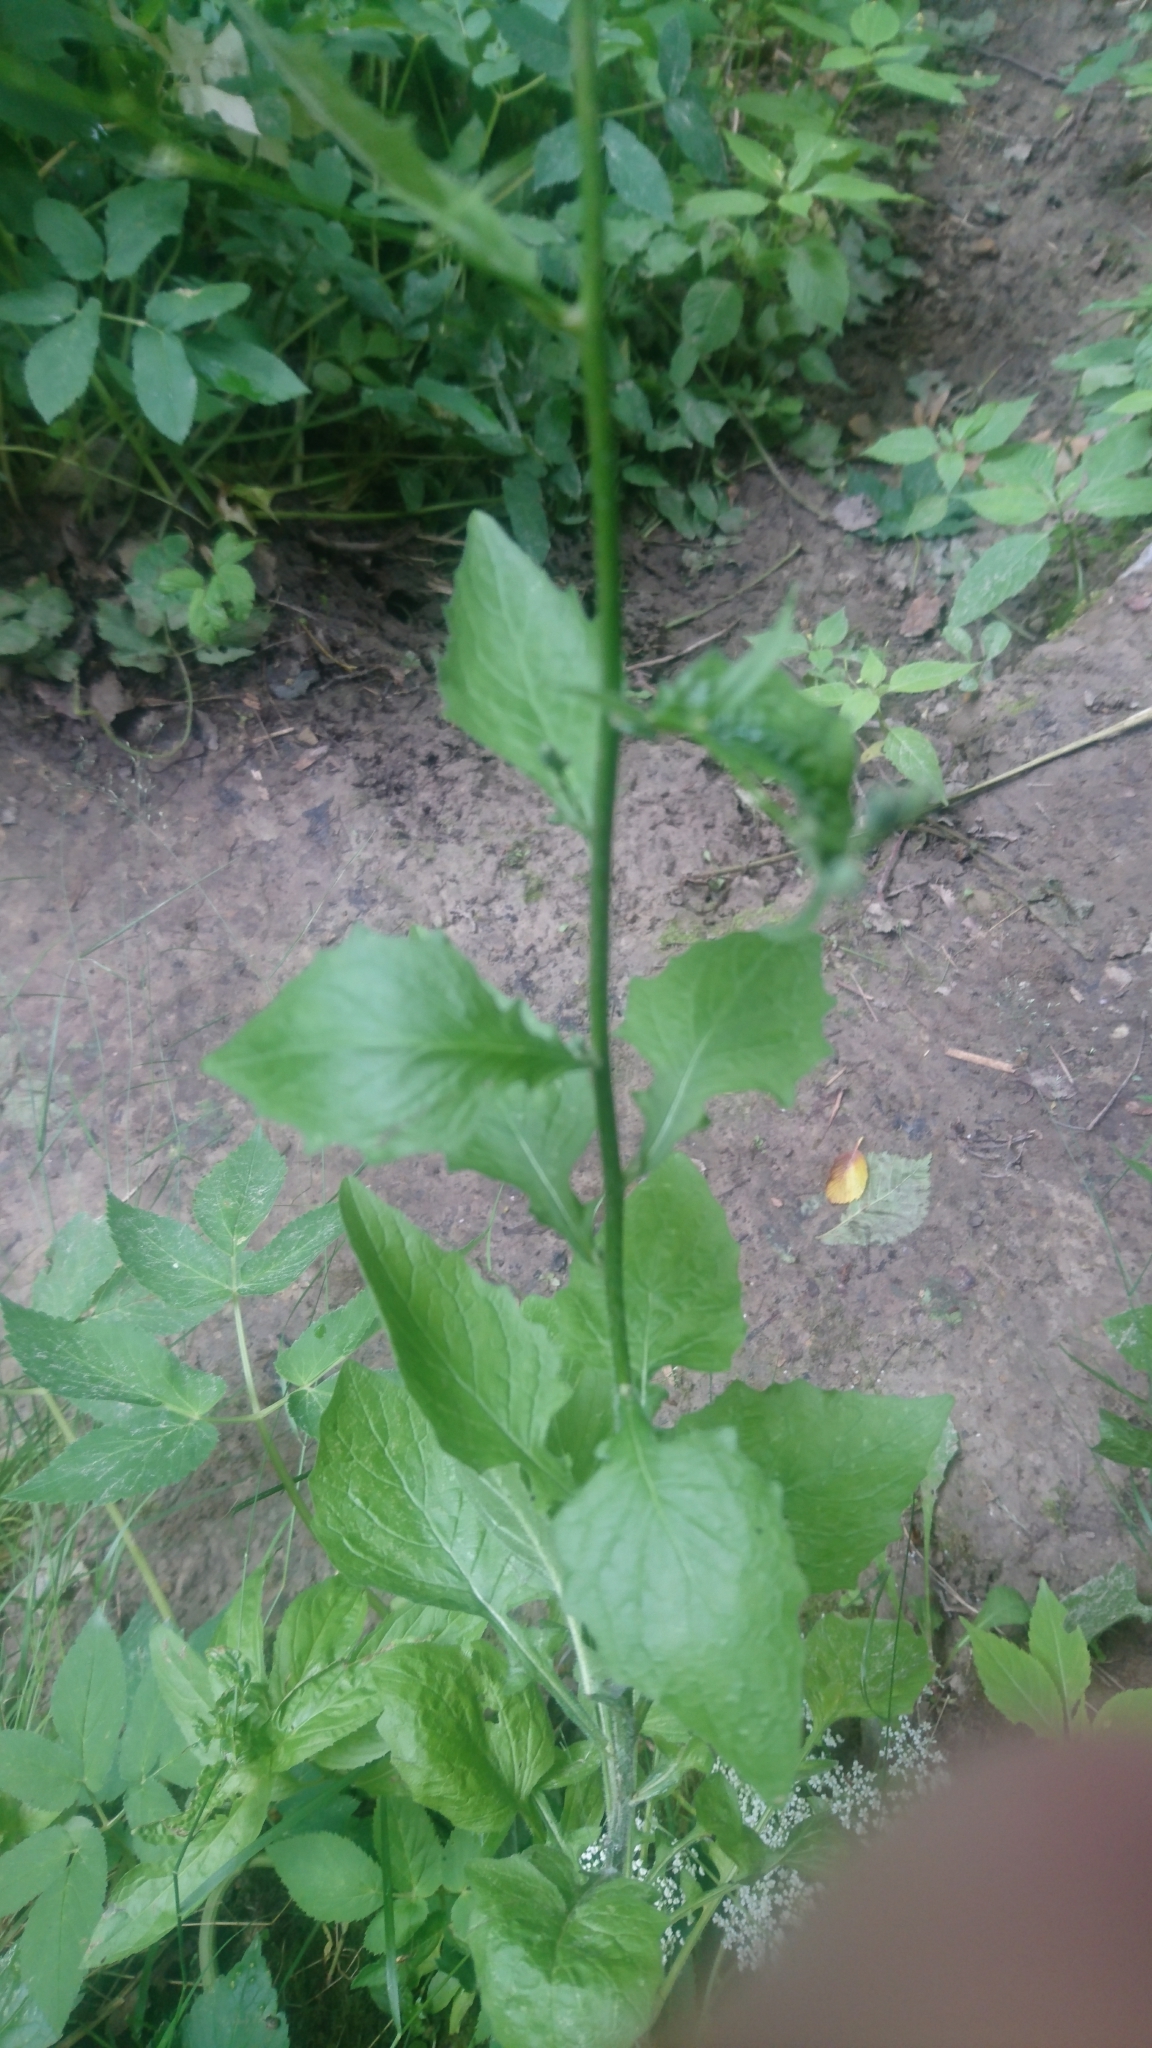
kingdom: Plantae
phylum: Tracheophyta
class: Magnoliopsida
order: Asterales
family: Asteraceae
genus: Lapsana
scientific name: Lapsana communis
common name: Nipplewort
